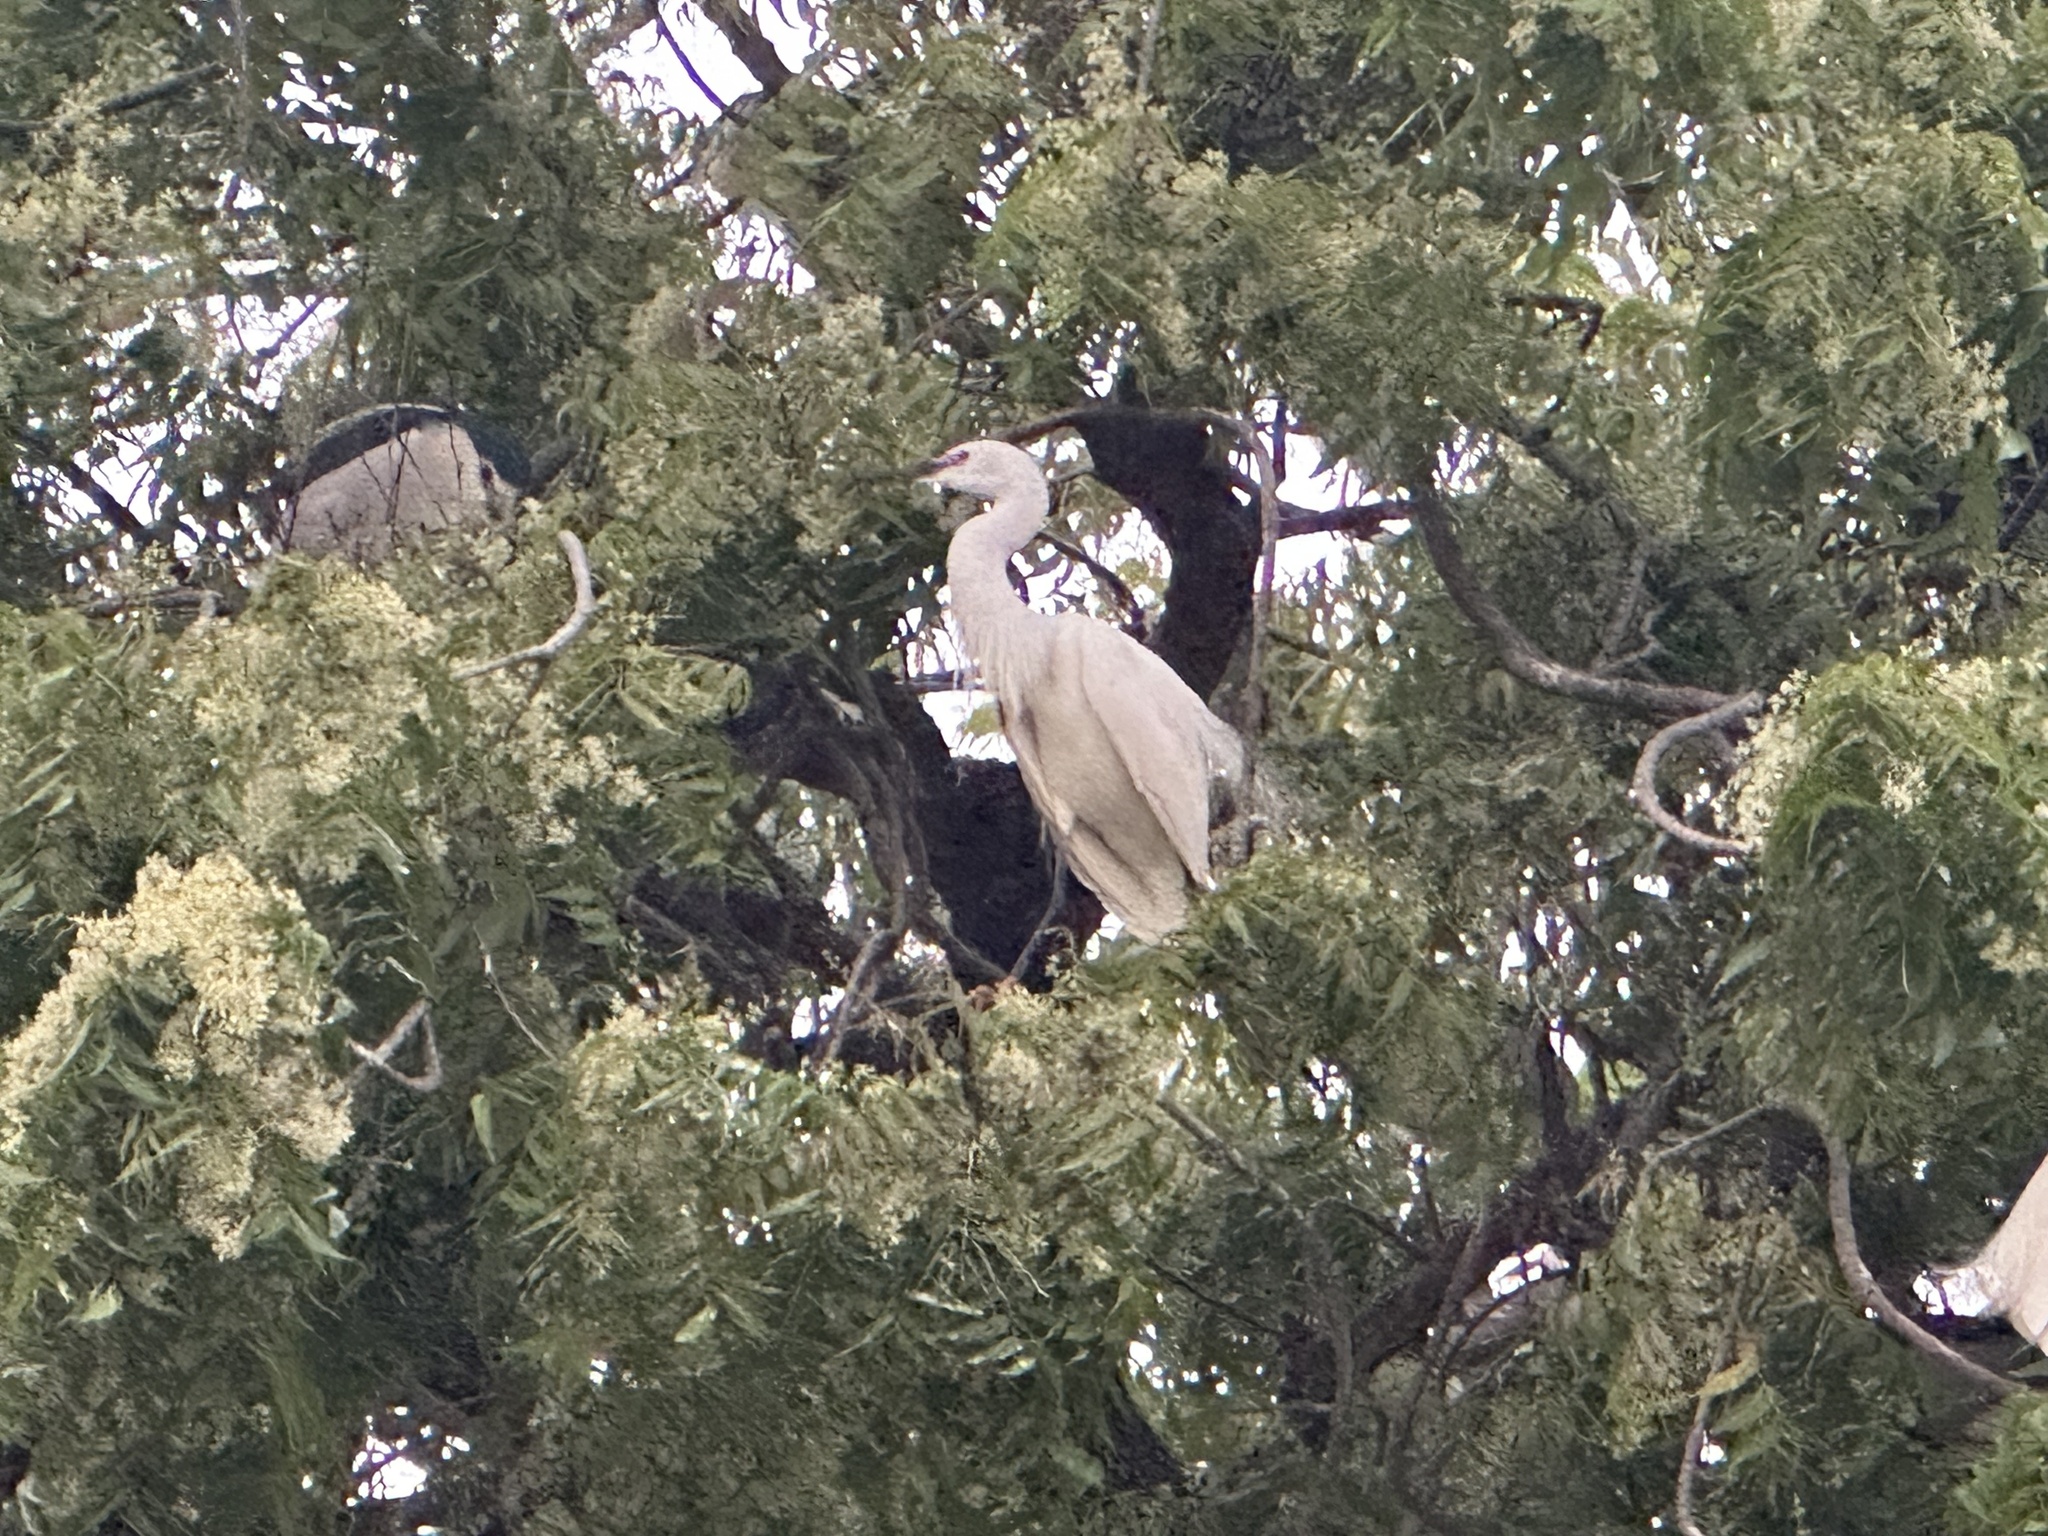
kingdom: Animalia
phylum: Chordata
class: Aves
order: Pelecaniformes
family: Ardeidae
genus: Egretta
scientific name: Egretta garzetta
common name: Little egret
